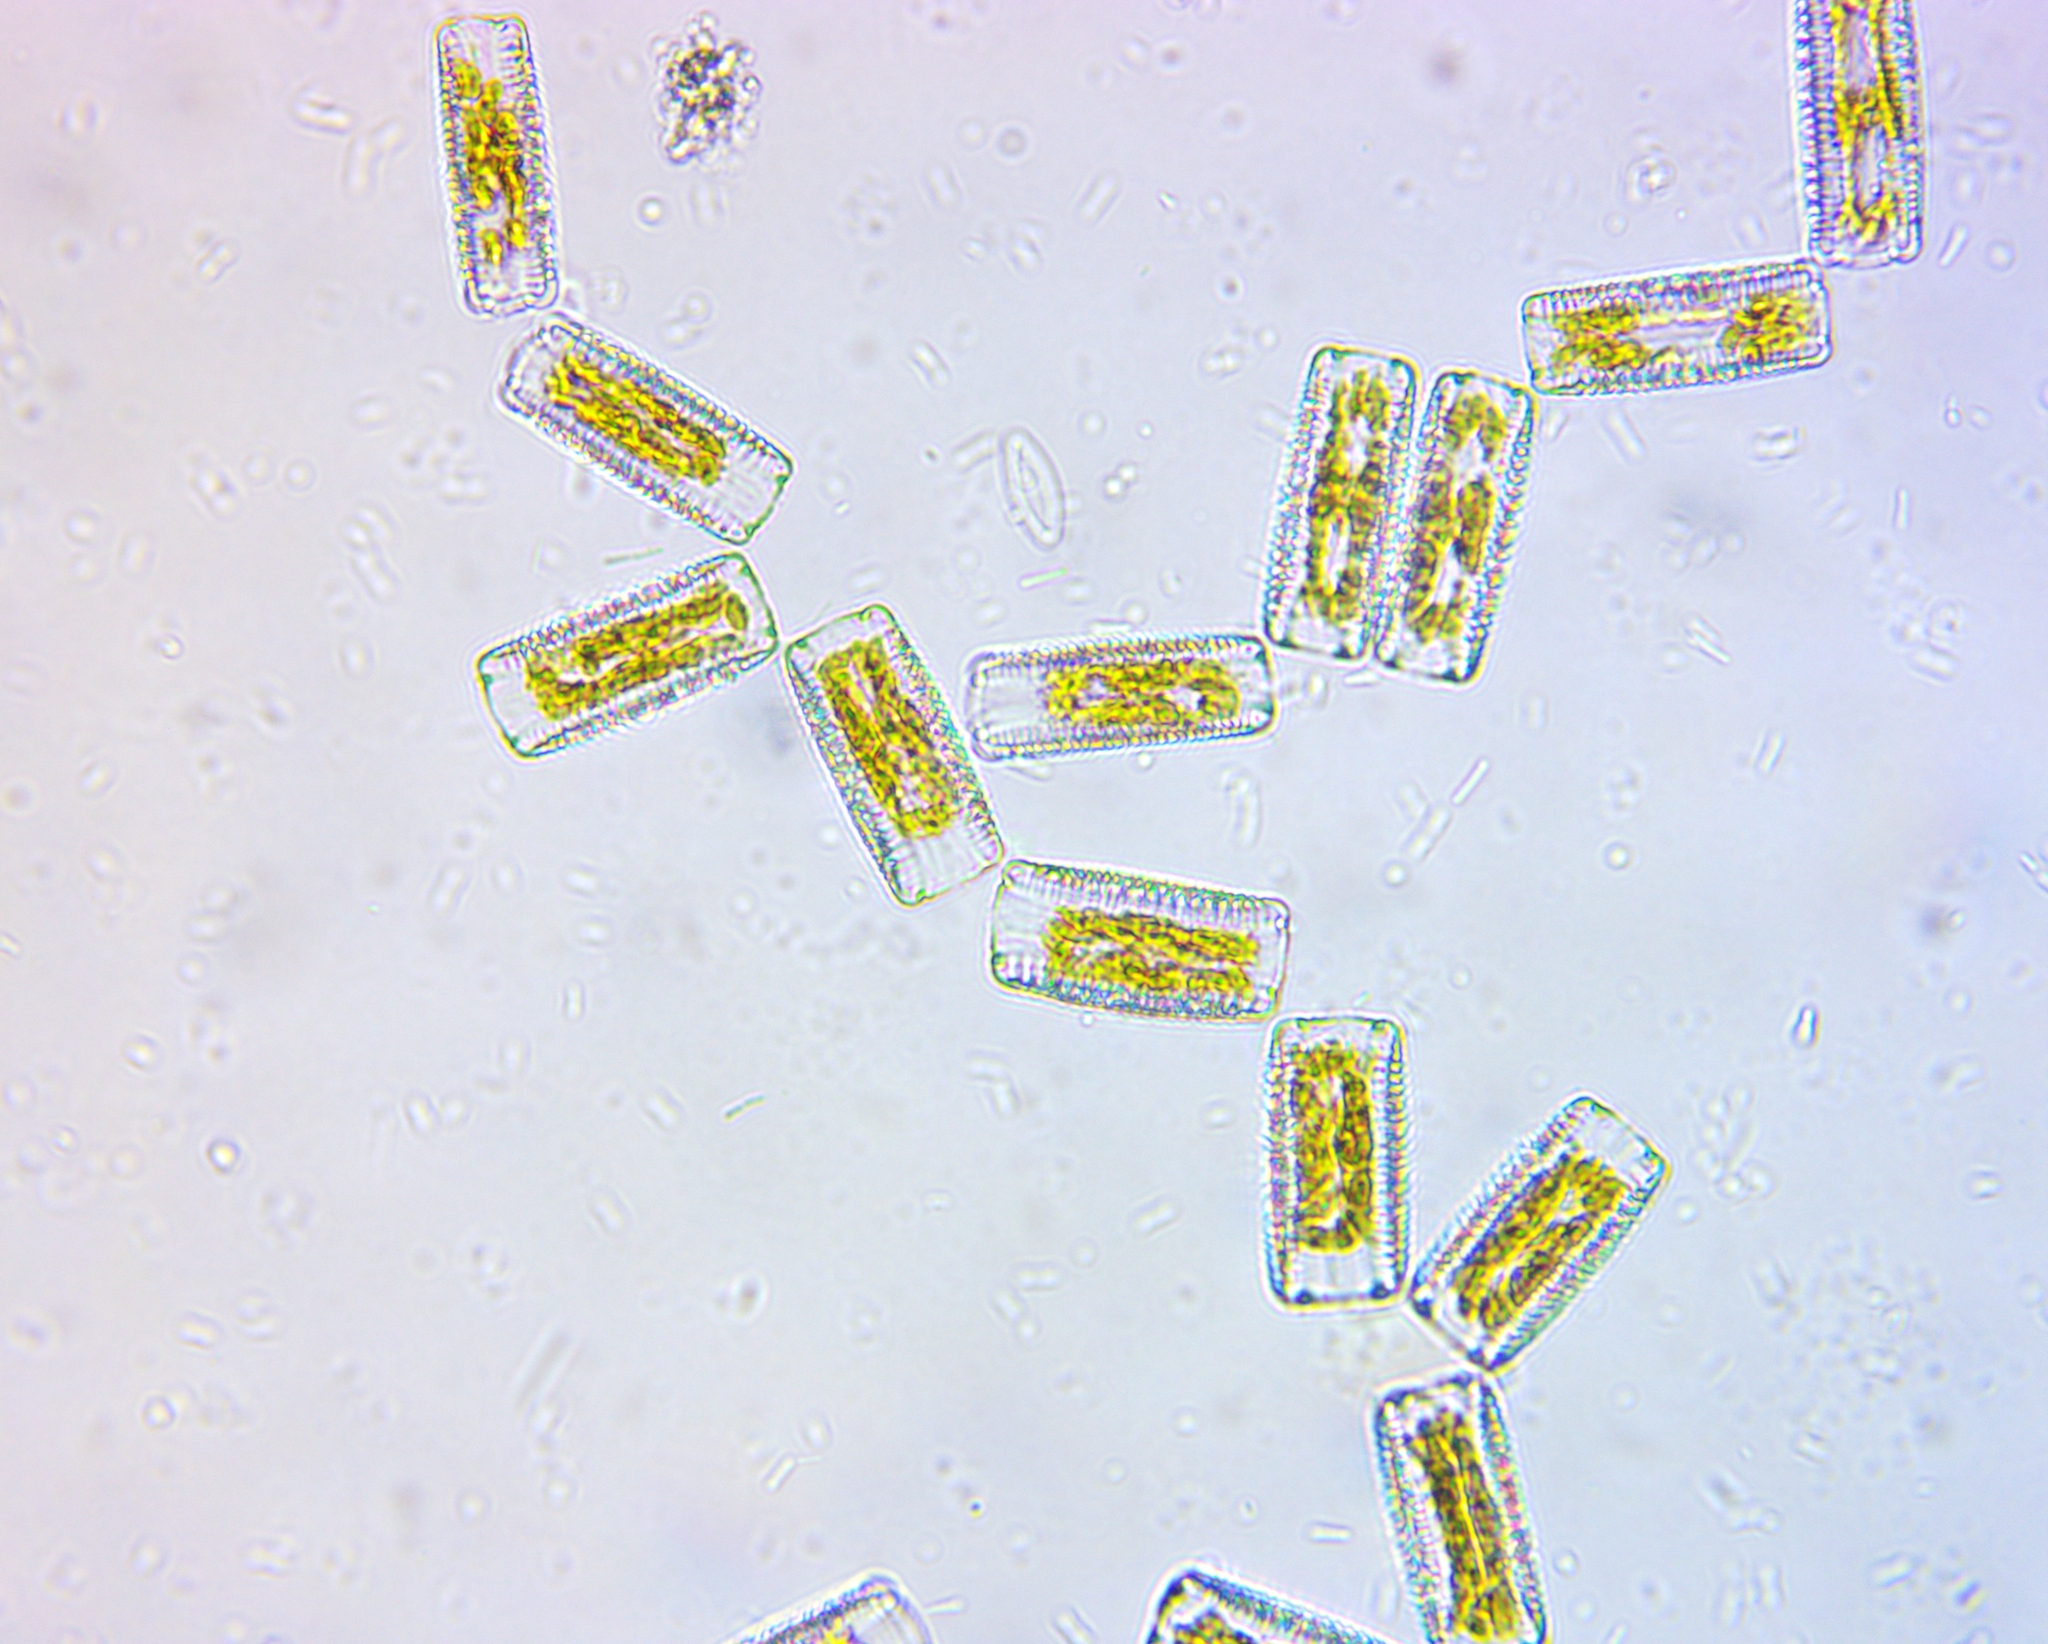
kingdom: Chromista
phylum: Ochrophyta
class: Bacillariophyceae
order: Fragilariales
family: Fragilariaceae
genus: Diatoma
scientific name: Diatoma vulgaris
